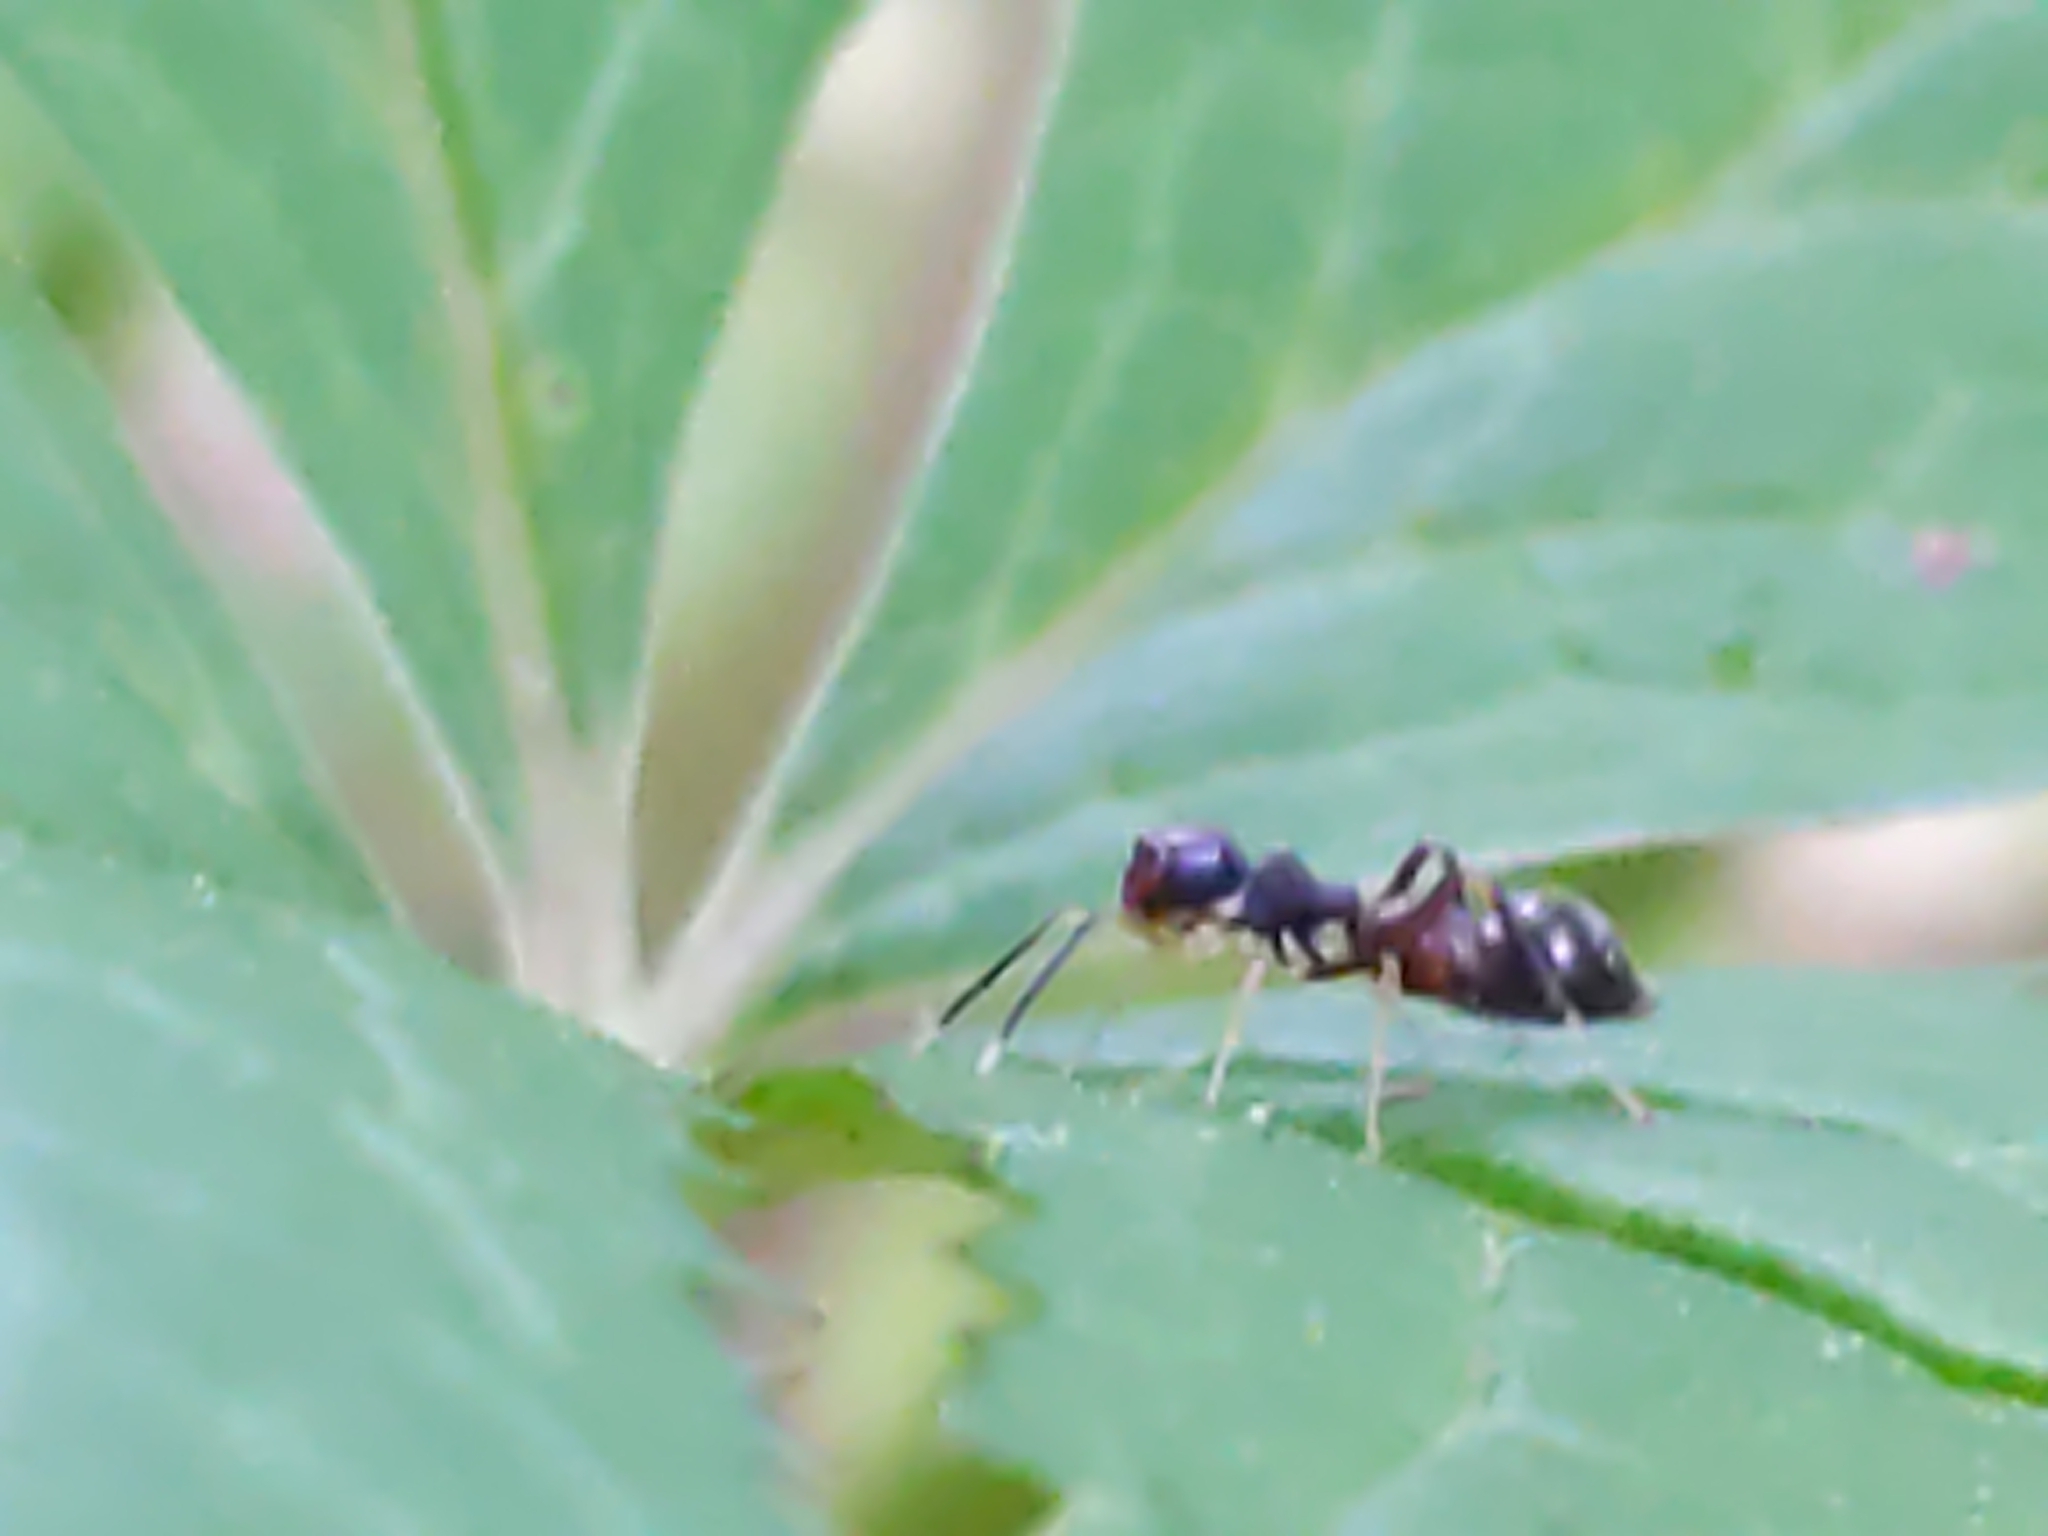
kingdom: Animalia
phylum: Arthropoda
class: Arachnida
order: Araneae
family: Salticidae
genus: Synemosyna
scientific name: Synemosyna formica
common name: Slender ant-mimic jumping spider
